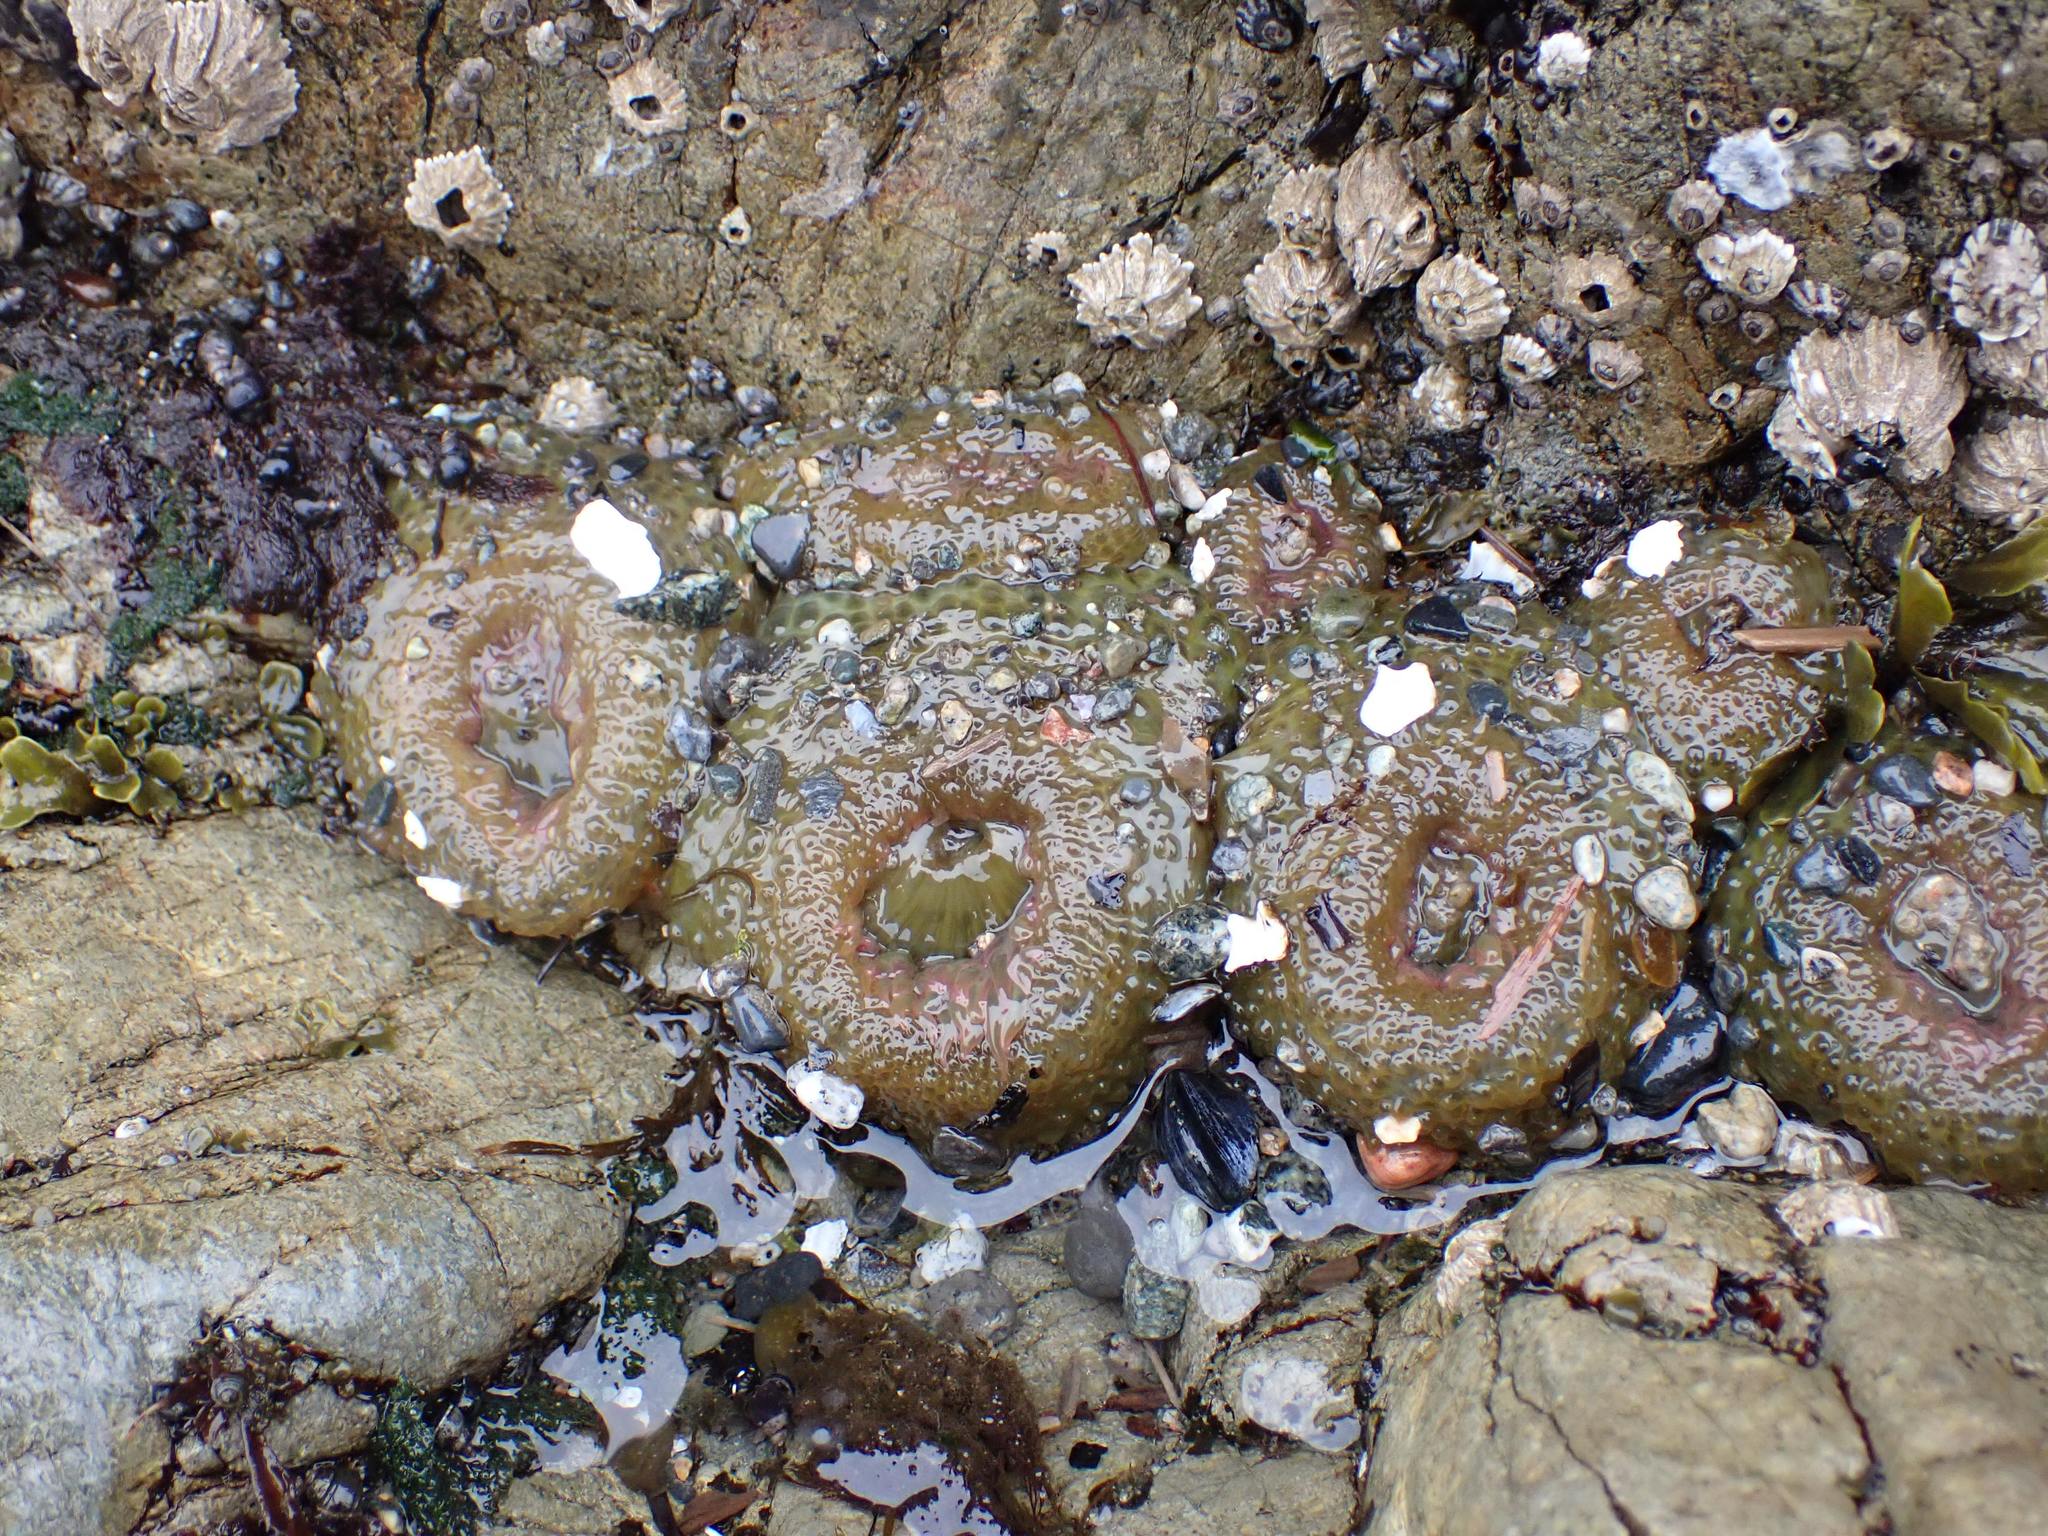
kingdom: Animalia
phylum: Cnidaria
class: Anthozoa
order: Actiniaria
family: Actiniidae
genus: Anthopleura
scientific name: Anthopleura elegantissima
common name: Clonal anemone
